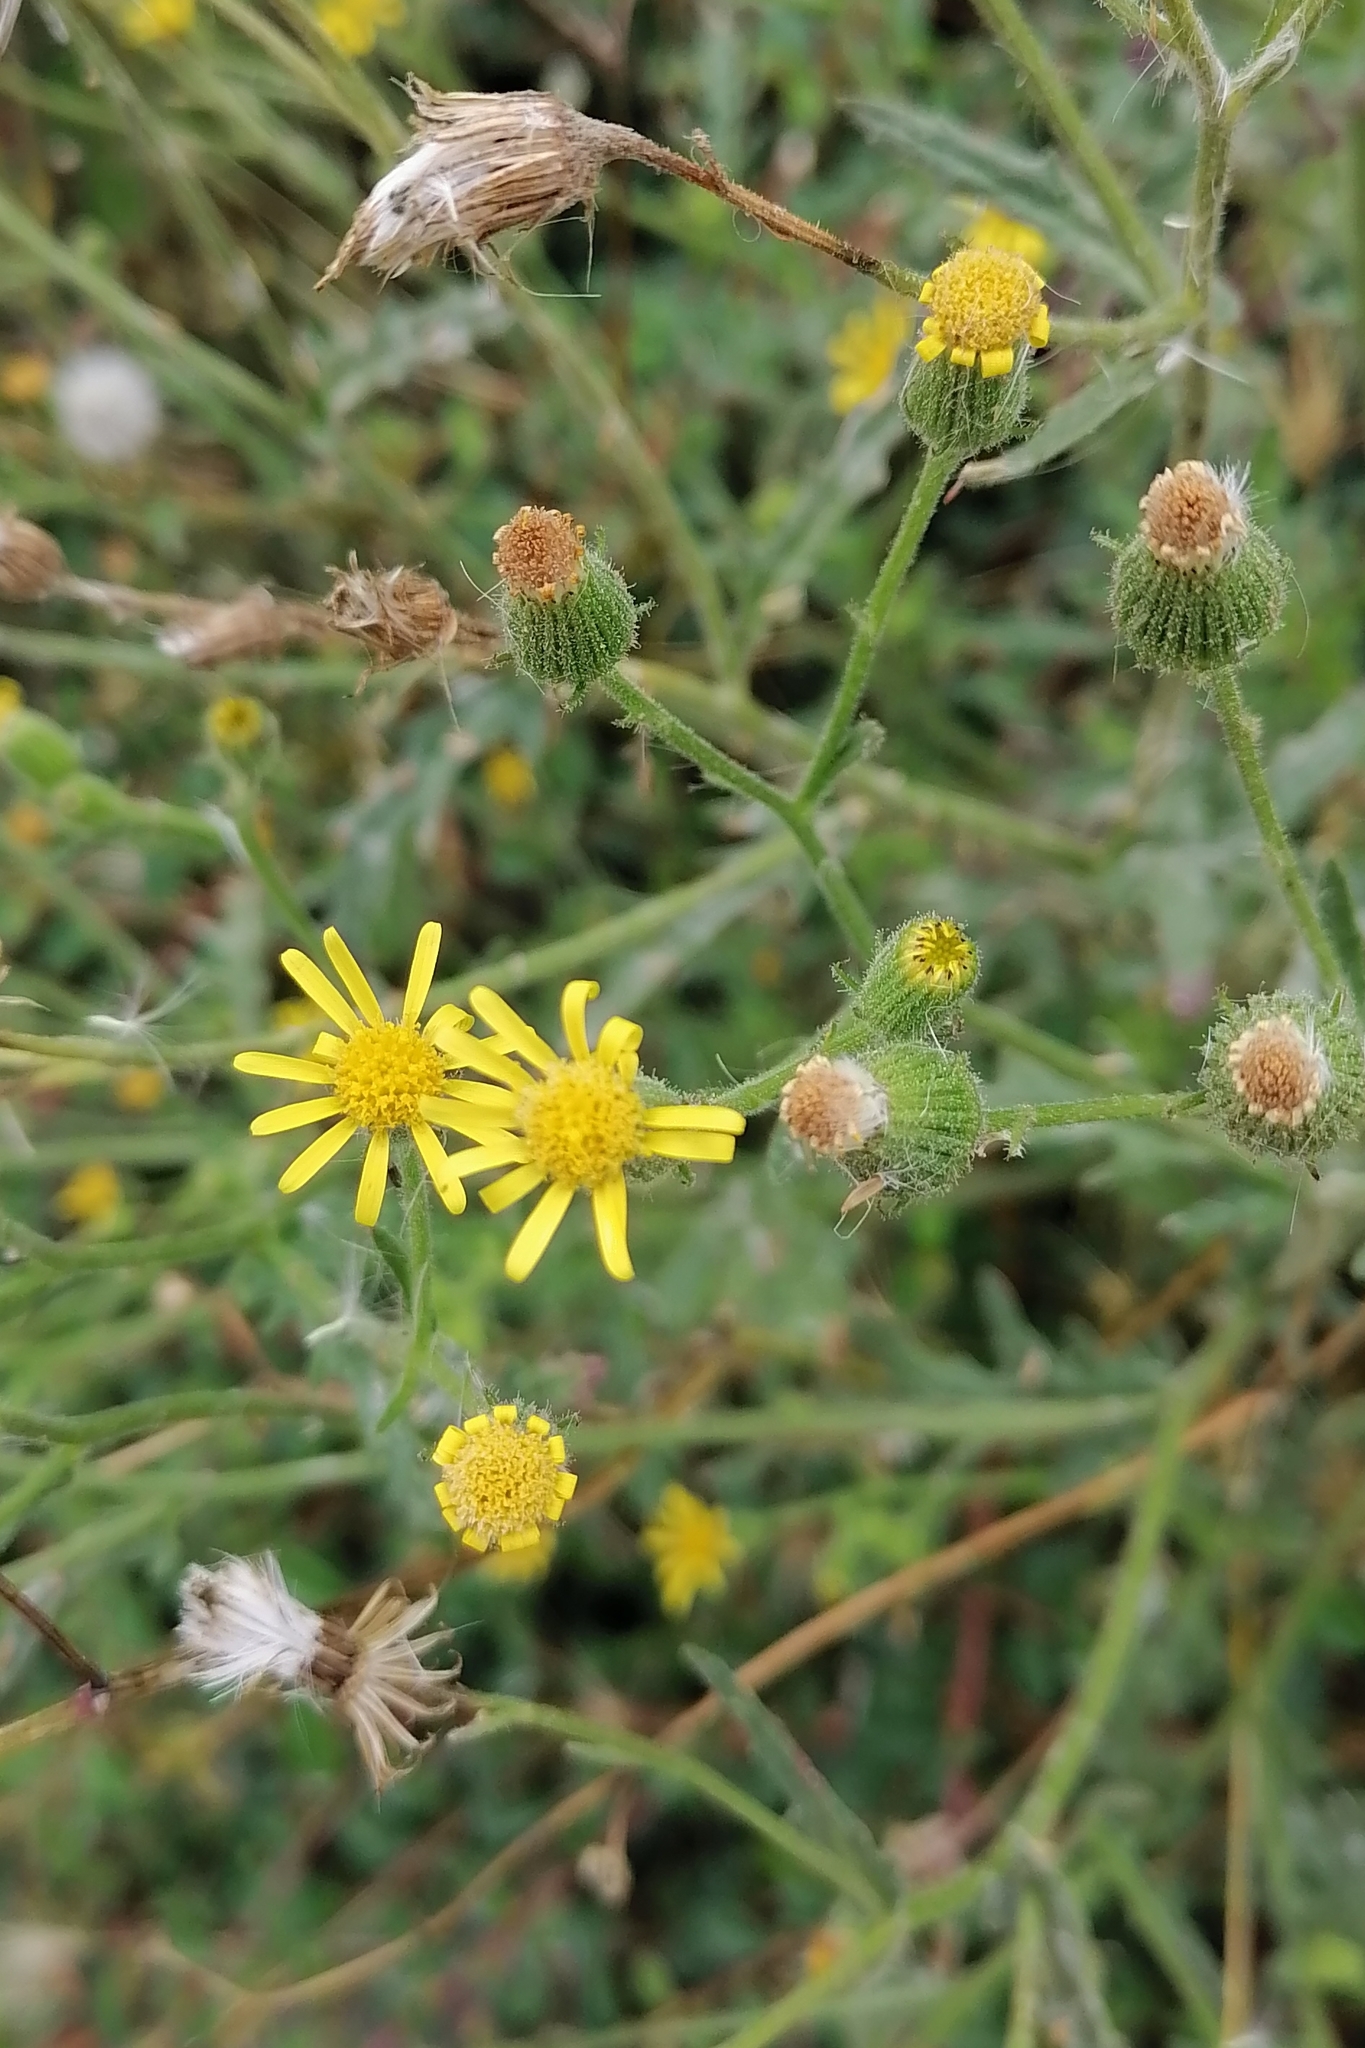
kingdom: Plantae
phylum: Tracheophyta
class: Magnoliopsida
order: Asterales
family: Asteraceae
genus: Senecio
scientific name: Senecio viscosus
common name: Sticky groundsel
